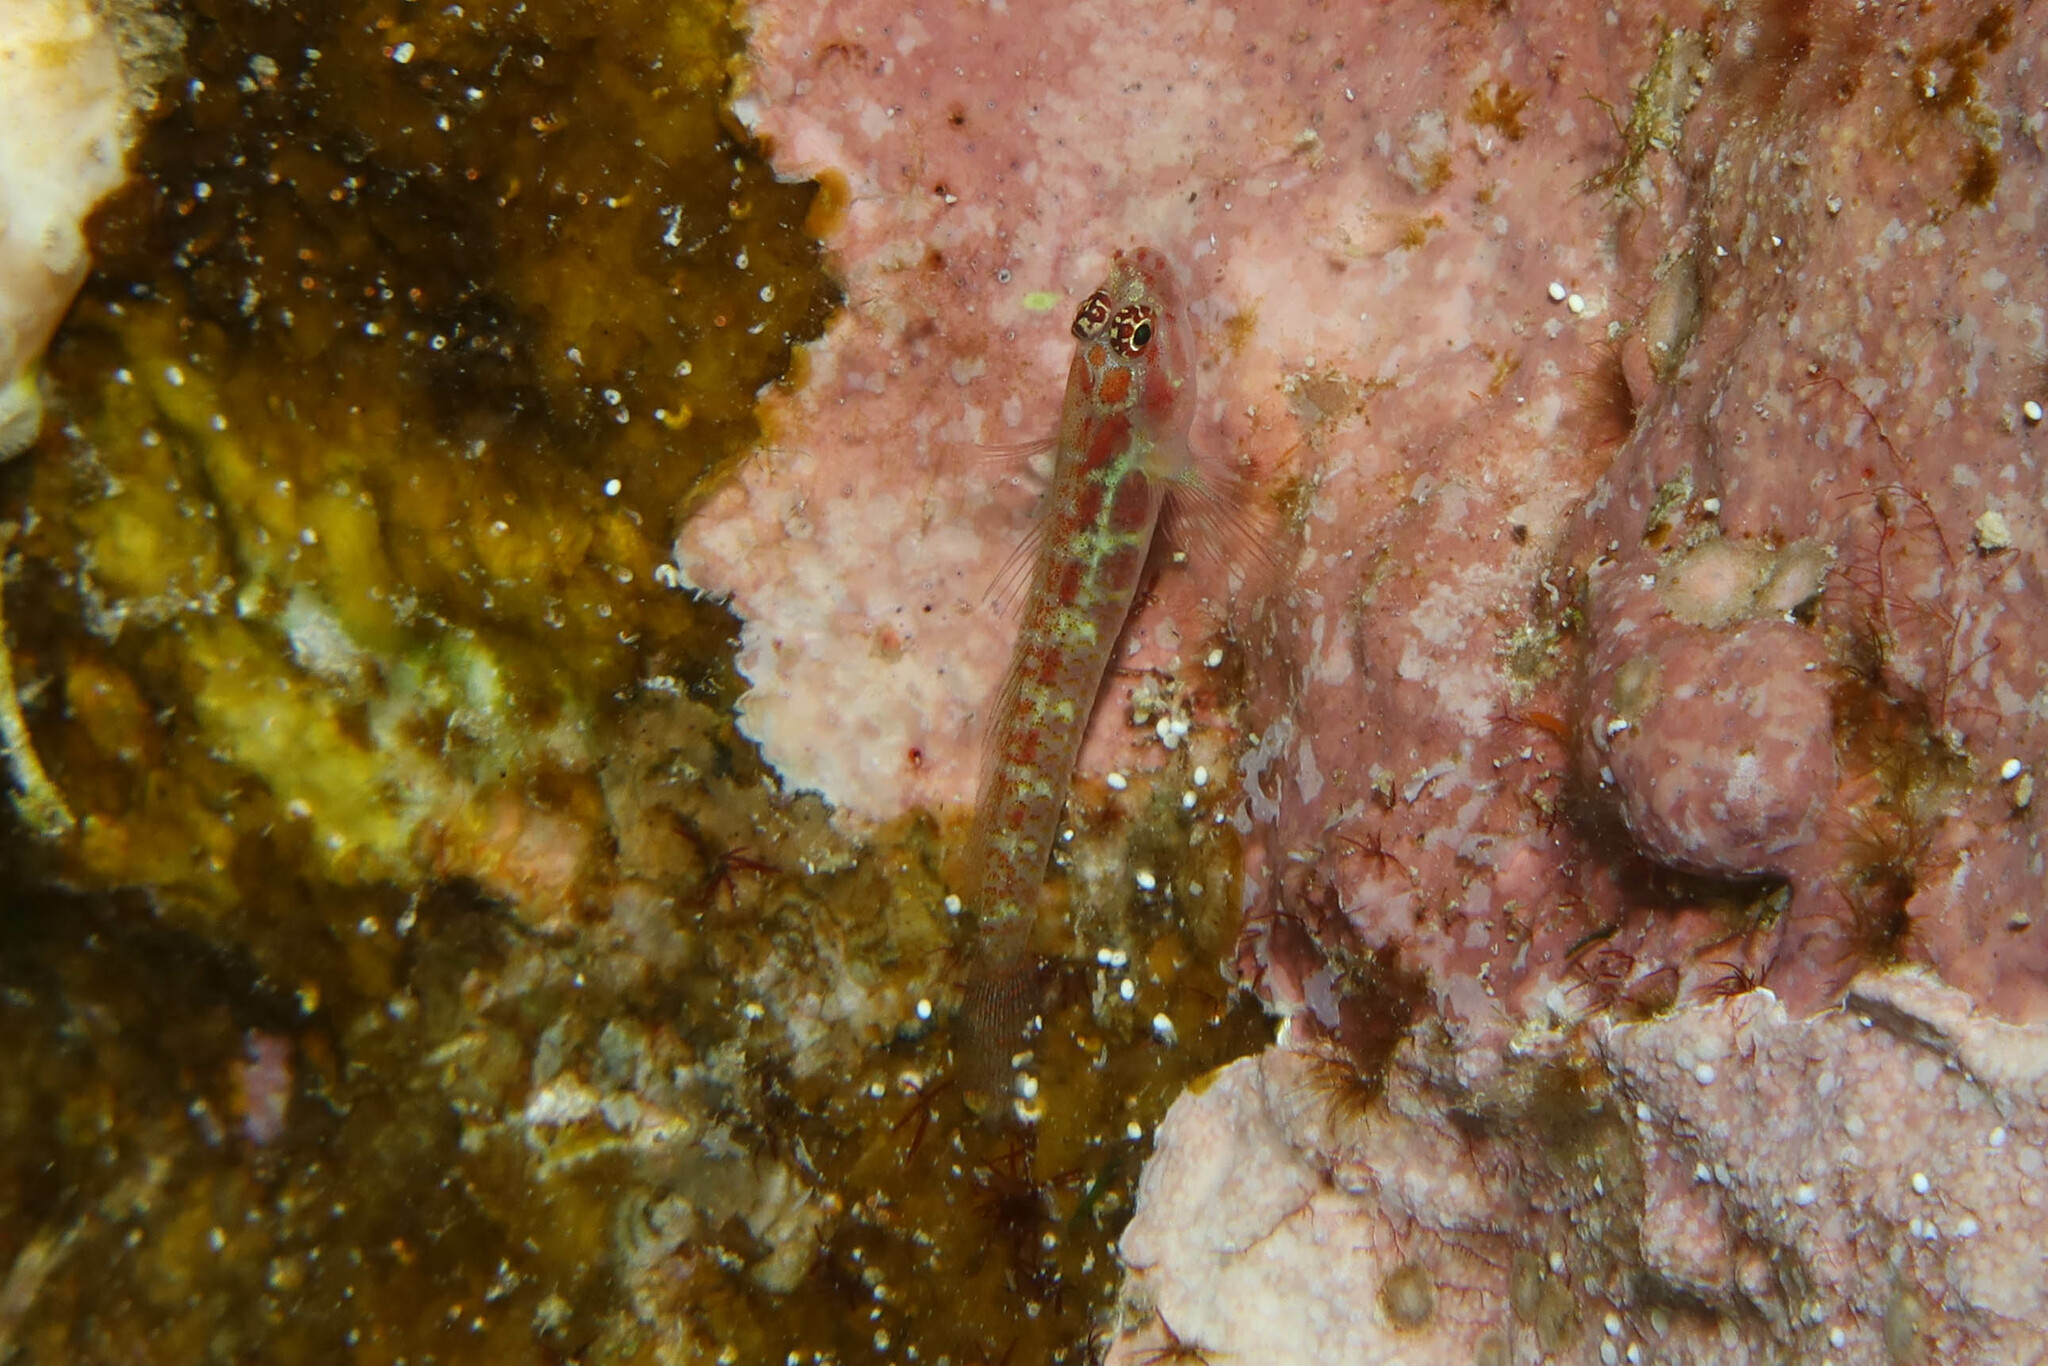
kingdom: Animalia
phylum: Chordata
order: Perciformes
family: Gobiidae
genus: Eviota
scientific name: Eviota guttata
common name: Green pygmy-goby
